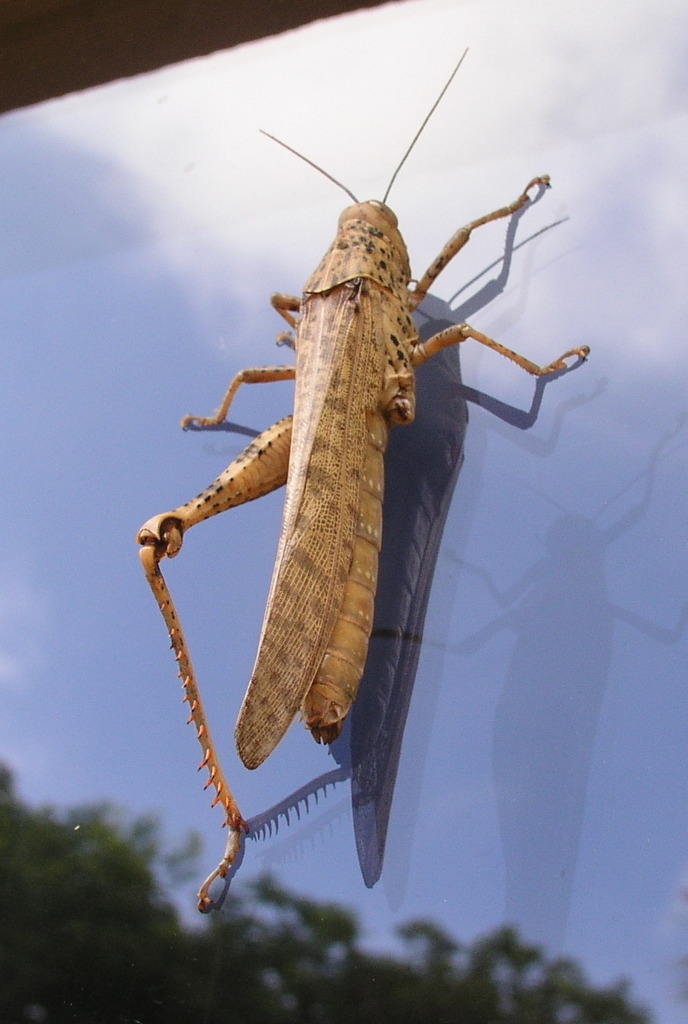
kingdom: Animalia
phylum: Arthropoda
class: Insecta
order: Orthoptera
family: Acrididae
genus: Valanga
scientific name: Valanga irregularis
